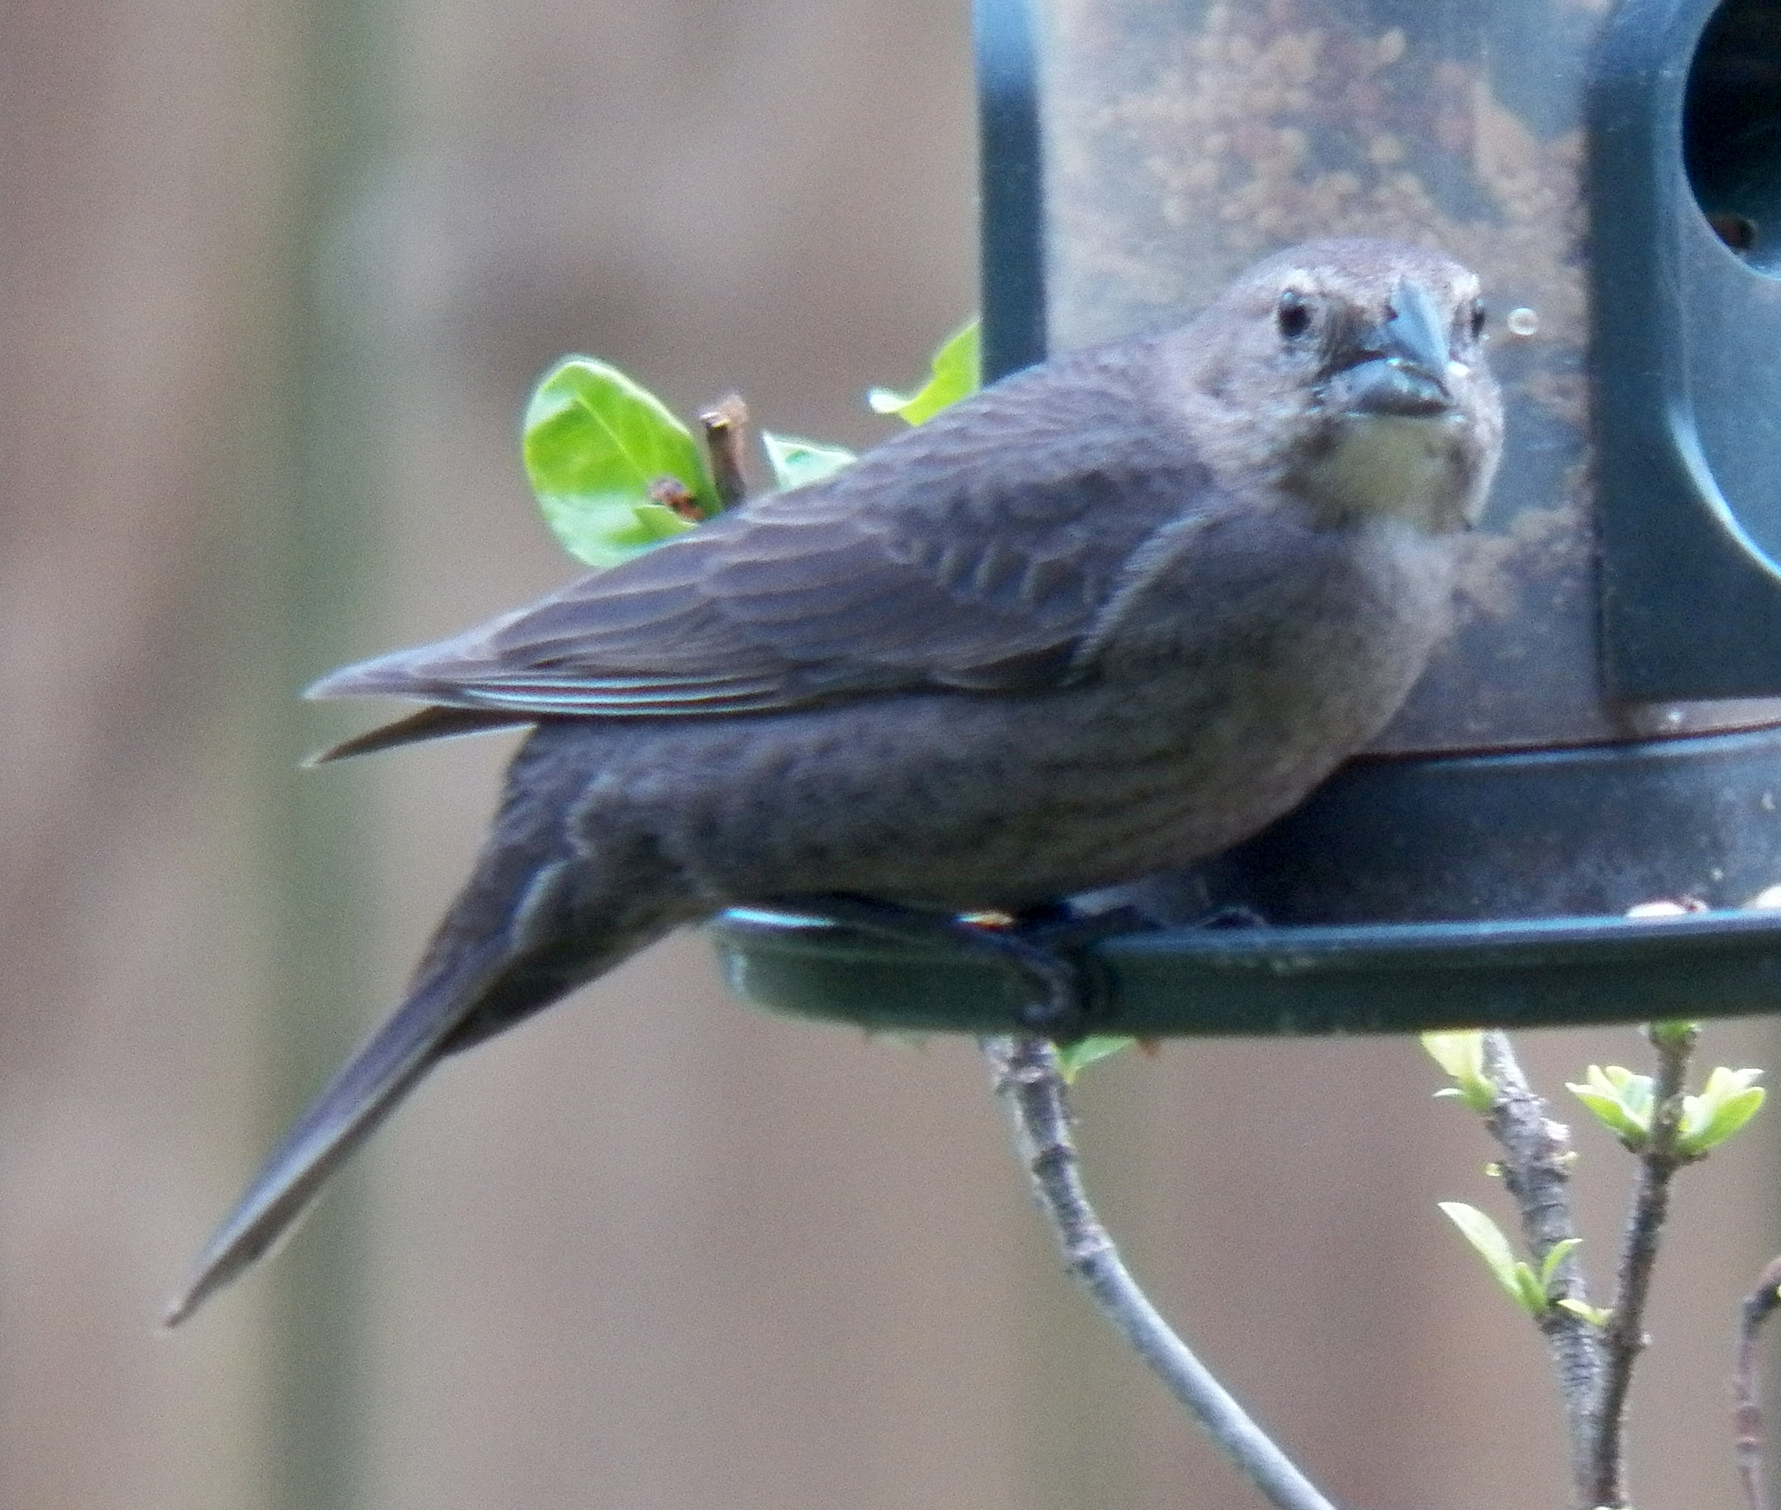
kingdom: Animalia
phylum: Chordata
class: Aves
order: Passeriformes
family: Icteridae
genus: Molothrus
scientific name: Molothrus ater
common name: Brown-headed cowbird
